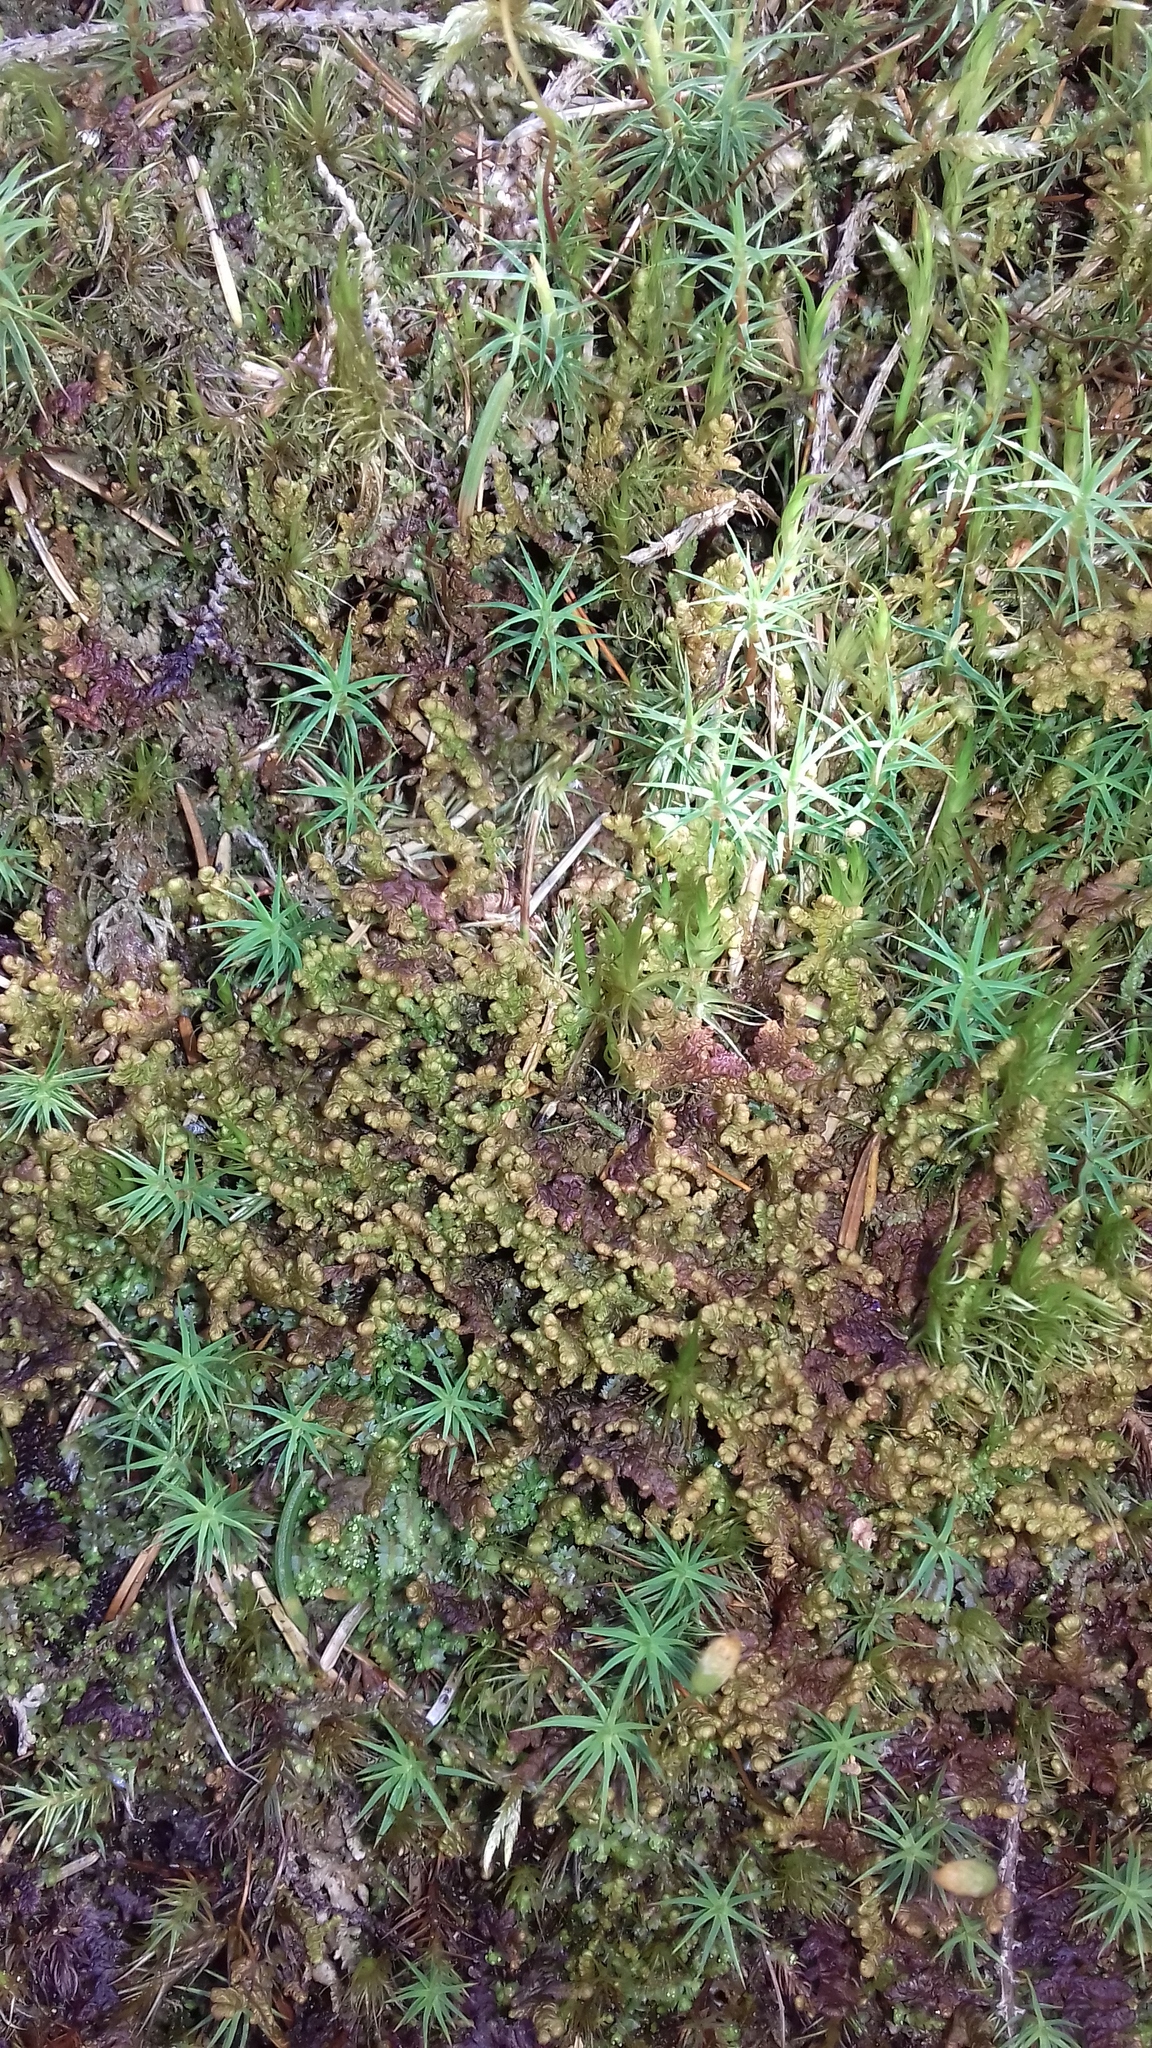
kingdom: Plantae
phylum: Marchantiophyta
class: Jungermanniopsida
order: Ptilidiales
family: Ptilidiaceae
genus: Ptilidium
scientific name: Ptilidium ciliare
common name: Ciliate fringewort
